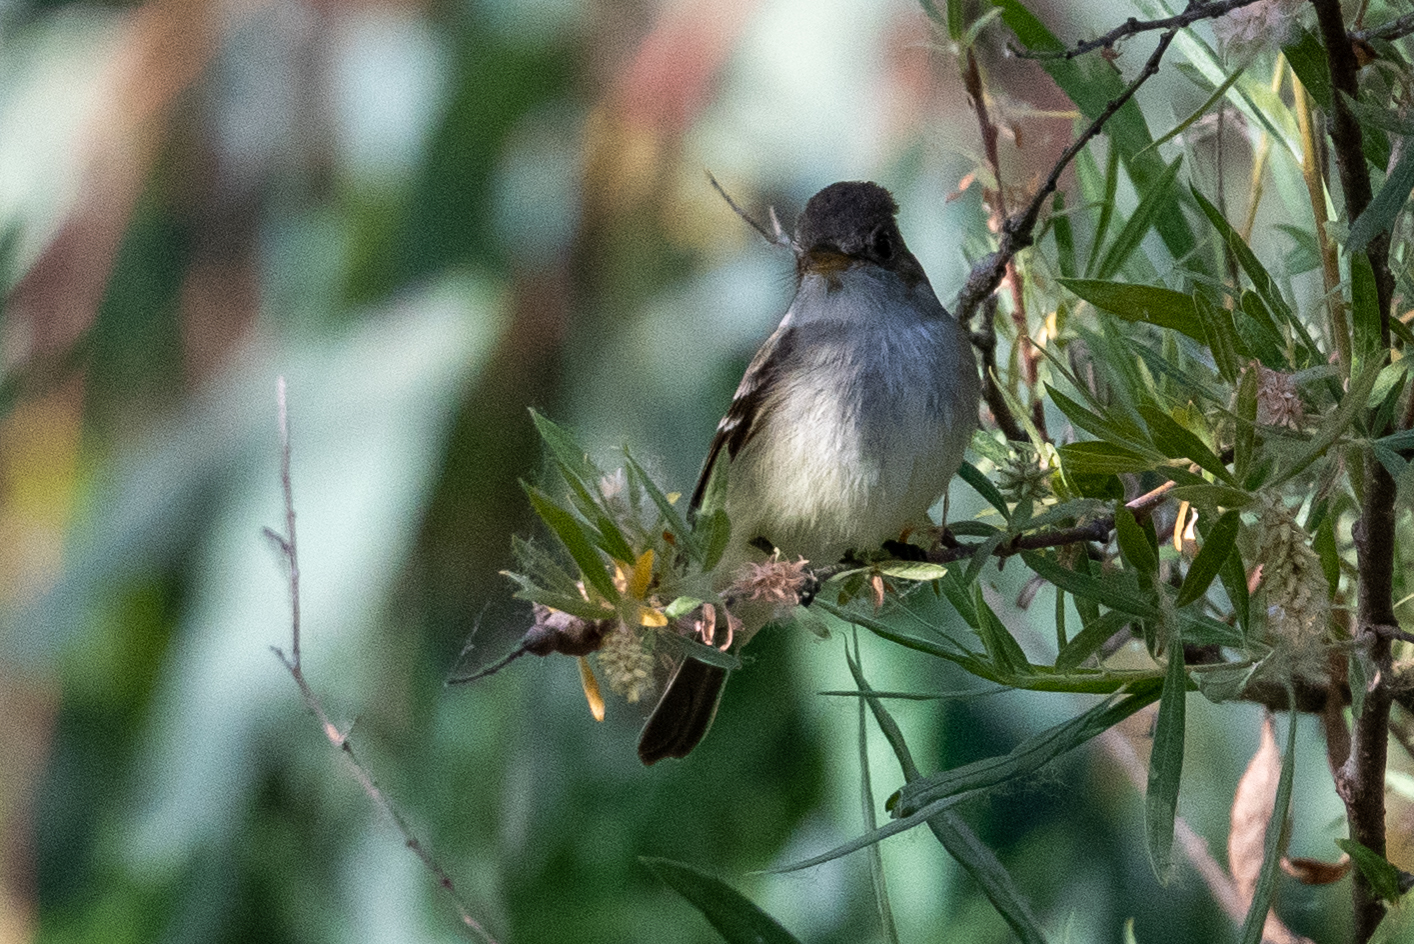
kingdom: Animalia
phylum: Chordata
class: Aves
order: Passeriformes
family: Tyrannidae
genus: Empidonax
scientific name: Empidonax traillii
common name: Willow flycatcher
